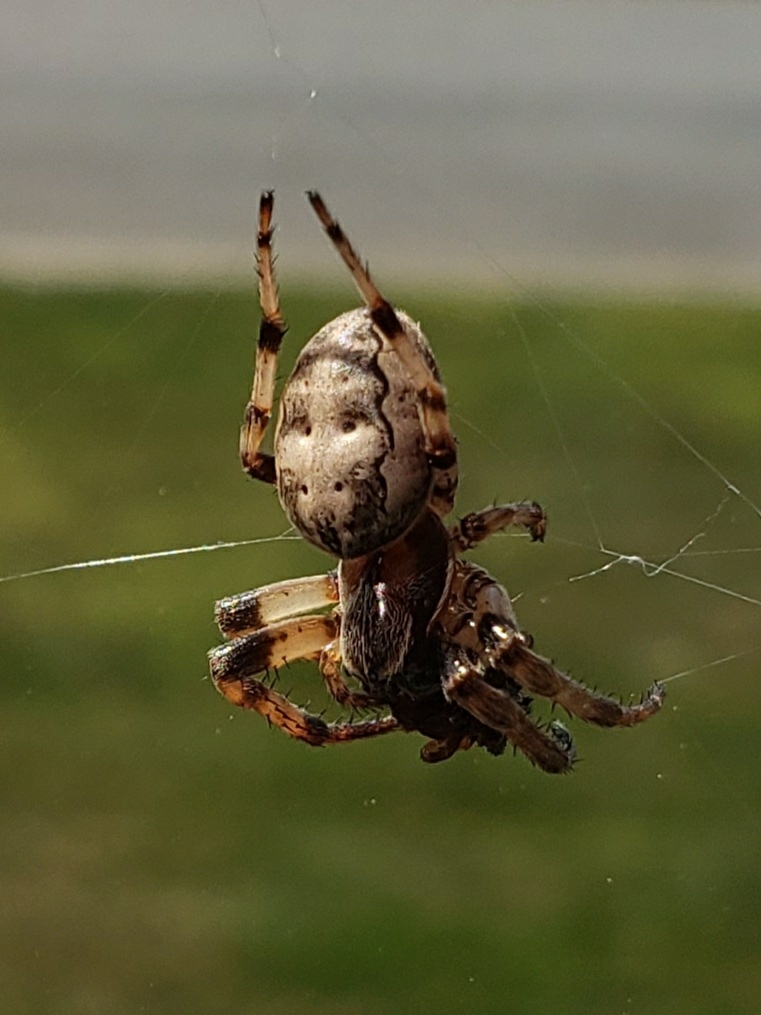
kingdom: Animalia
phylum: Arthropoda
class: Arachnida
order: Araneae
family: Araneidae
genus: Larinioides
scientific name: Larinioides cornutus
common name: Furrow orbweaver
